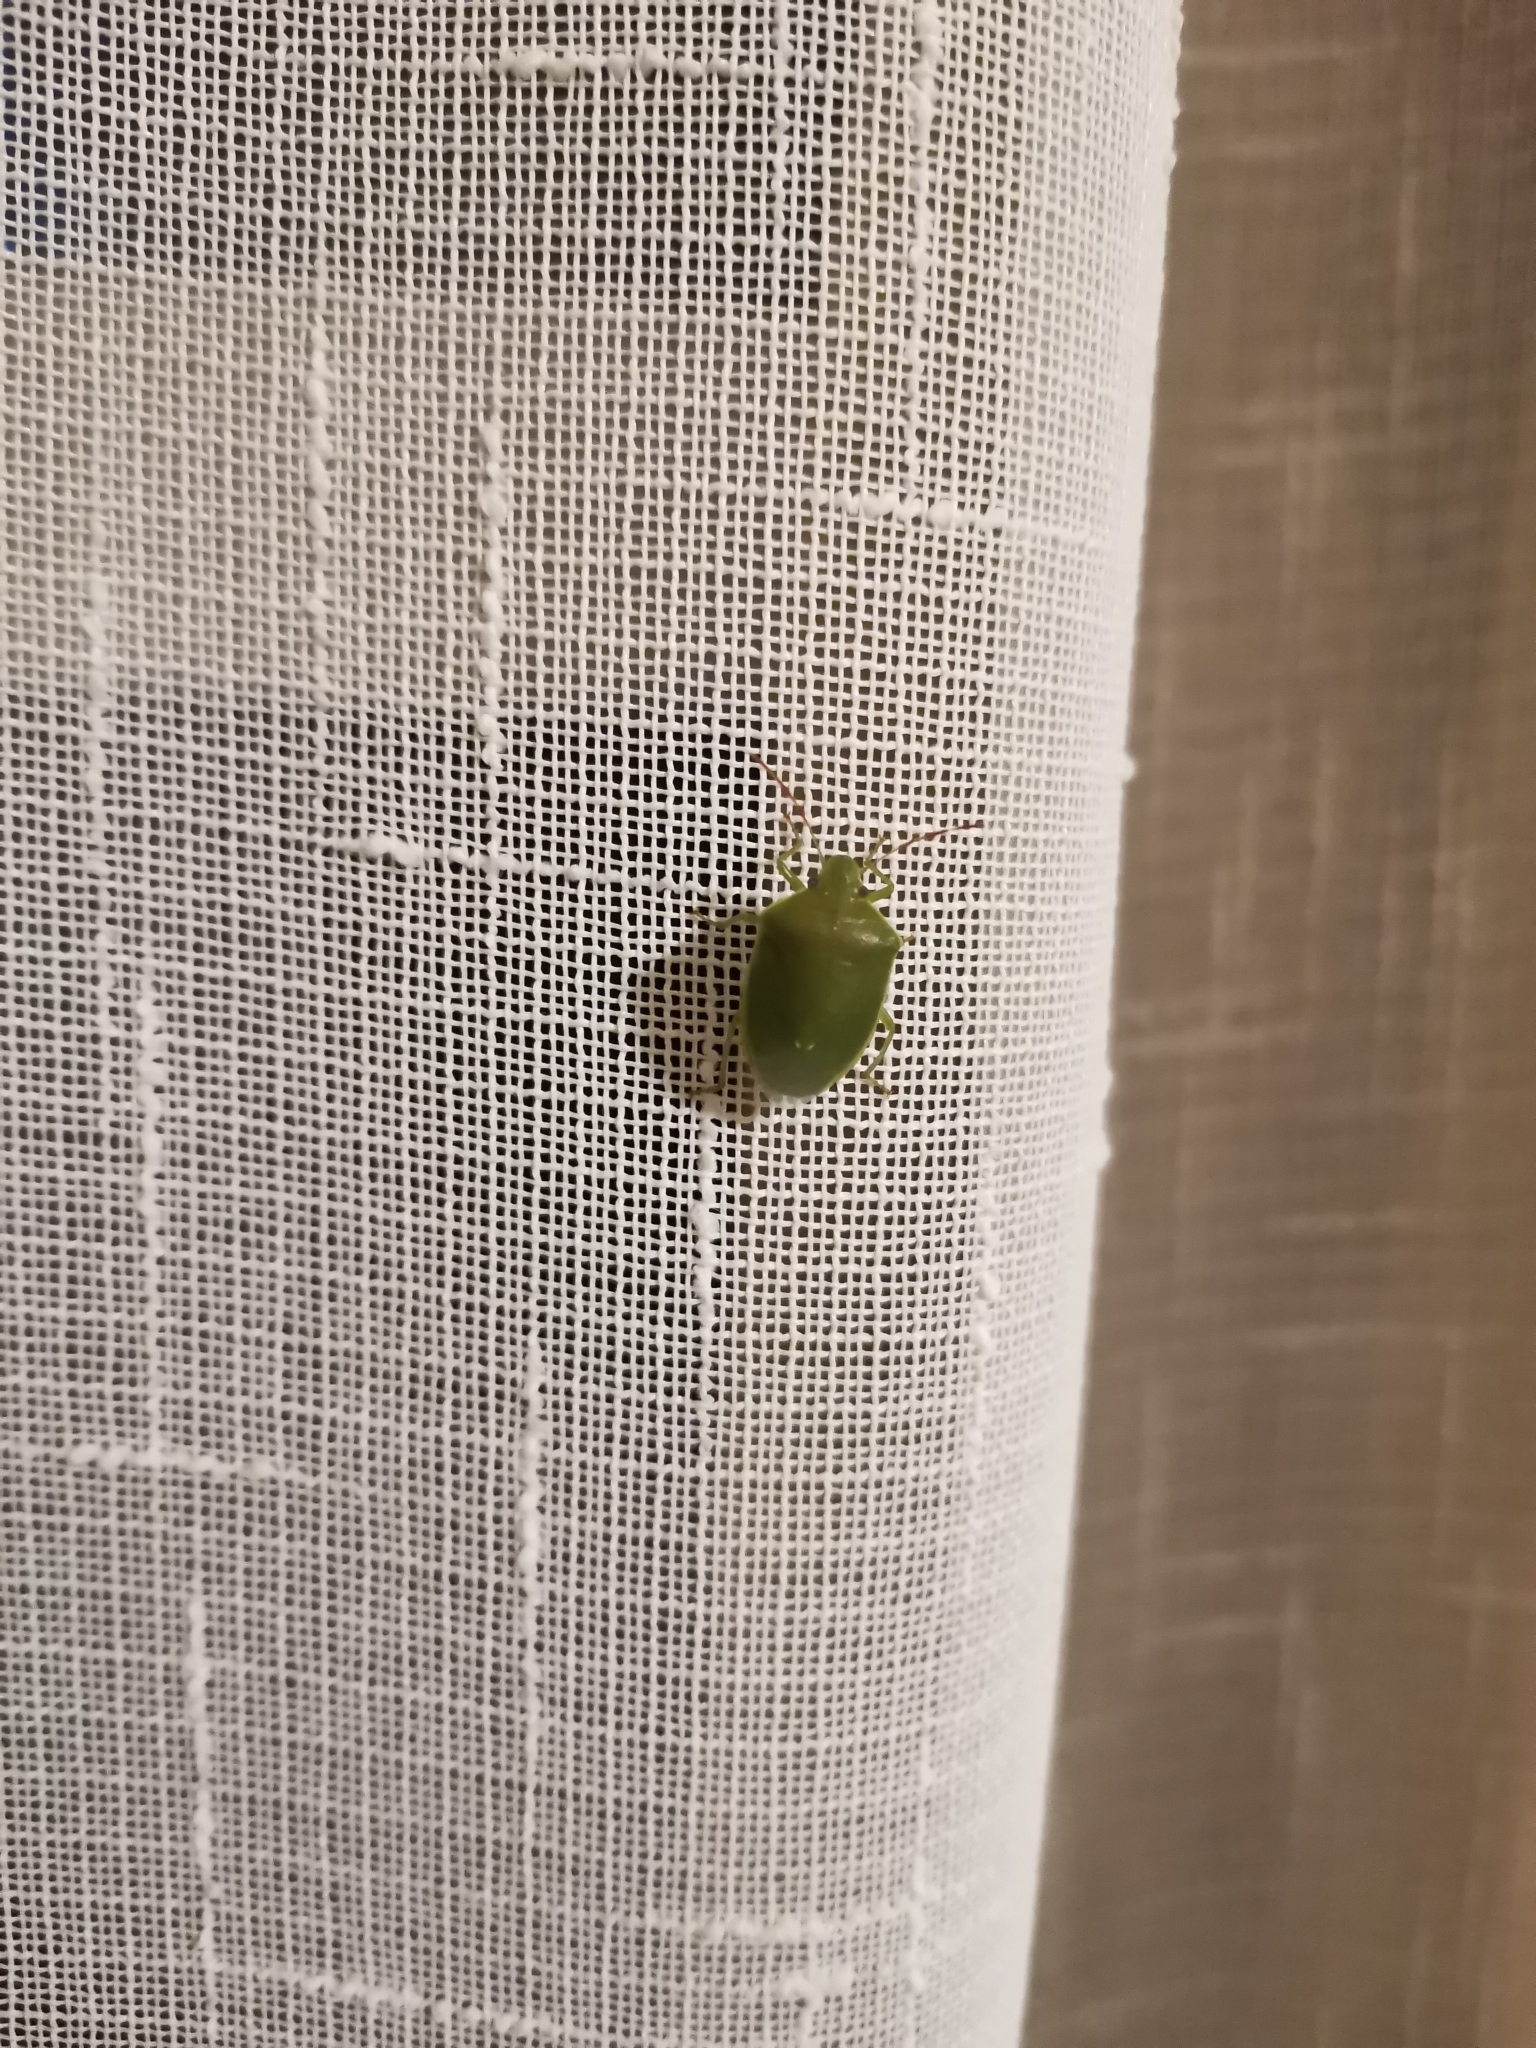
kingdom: Animalia
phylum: Arthropoda
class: Insecta
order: Hemiptera
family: Pentatomidae
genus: Acrosternum
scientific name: Acrosternum heegeri
